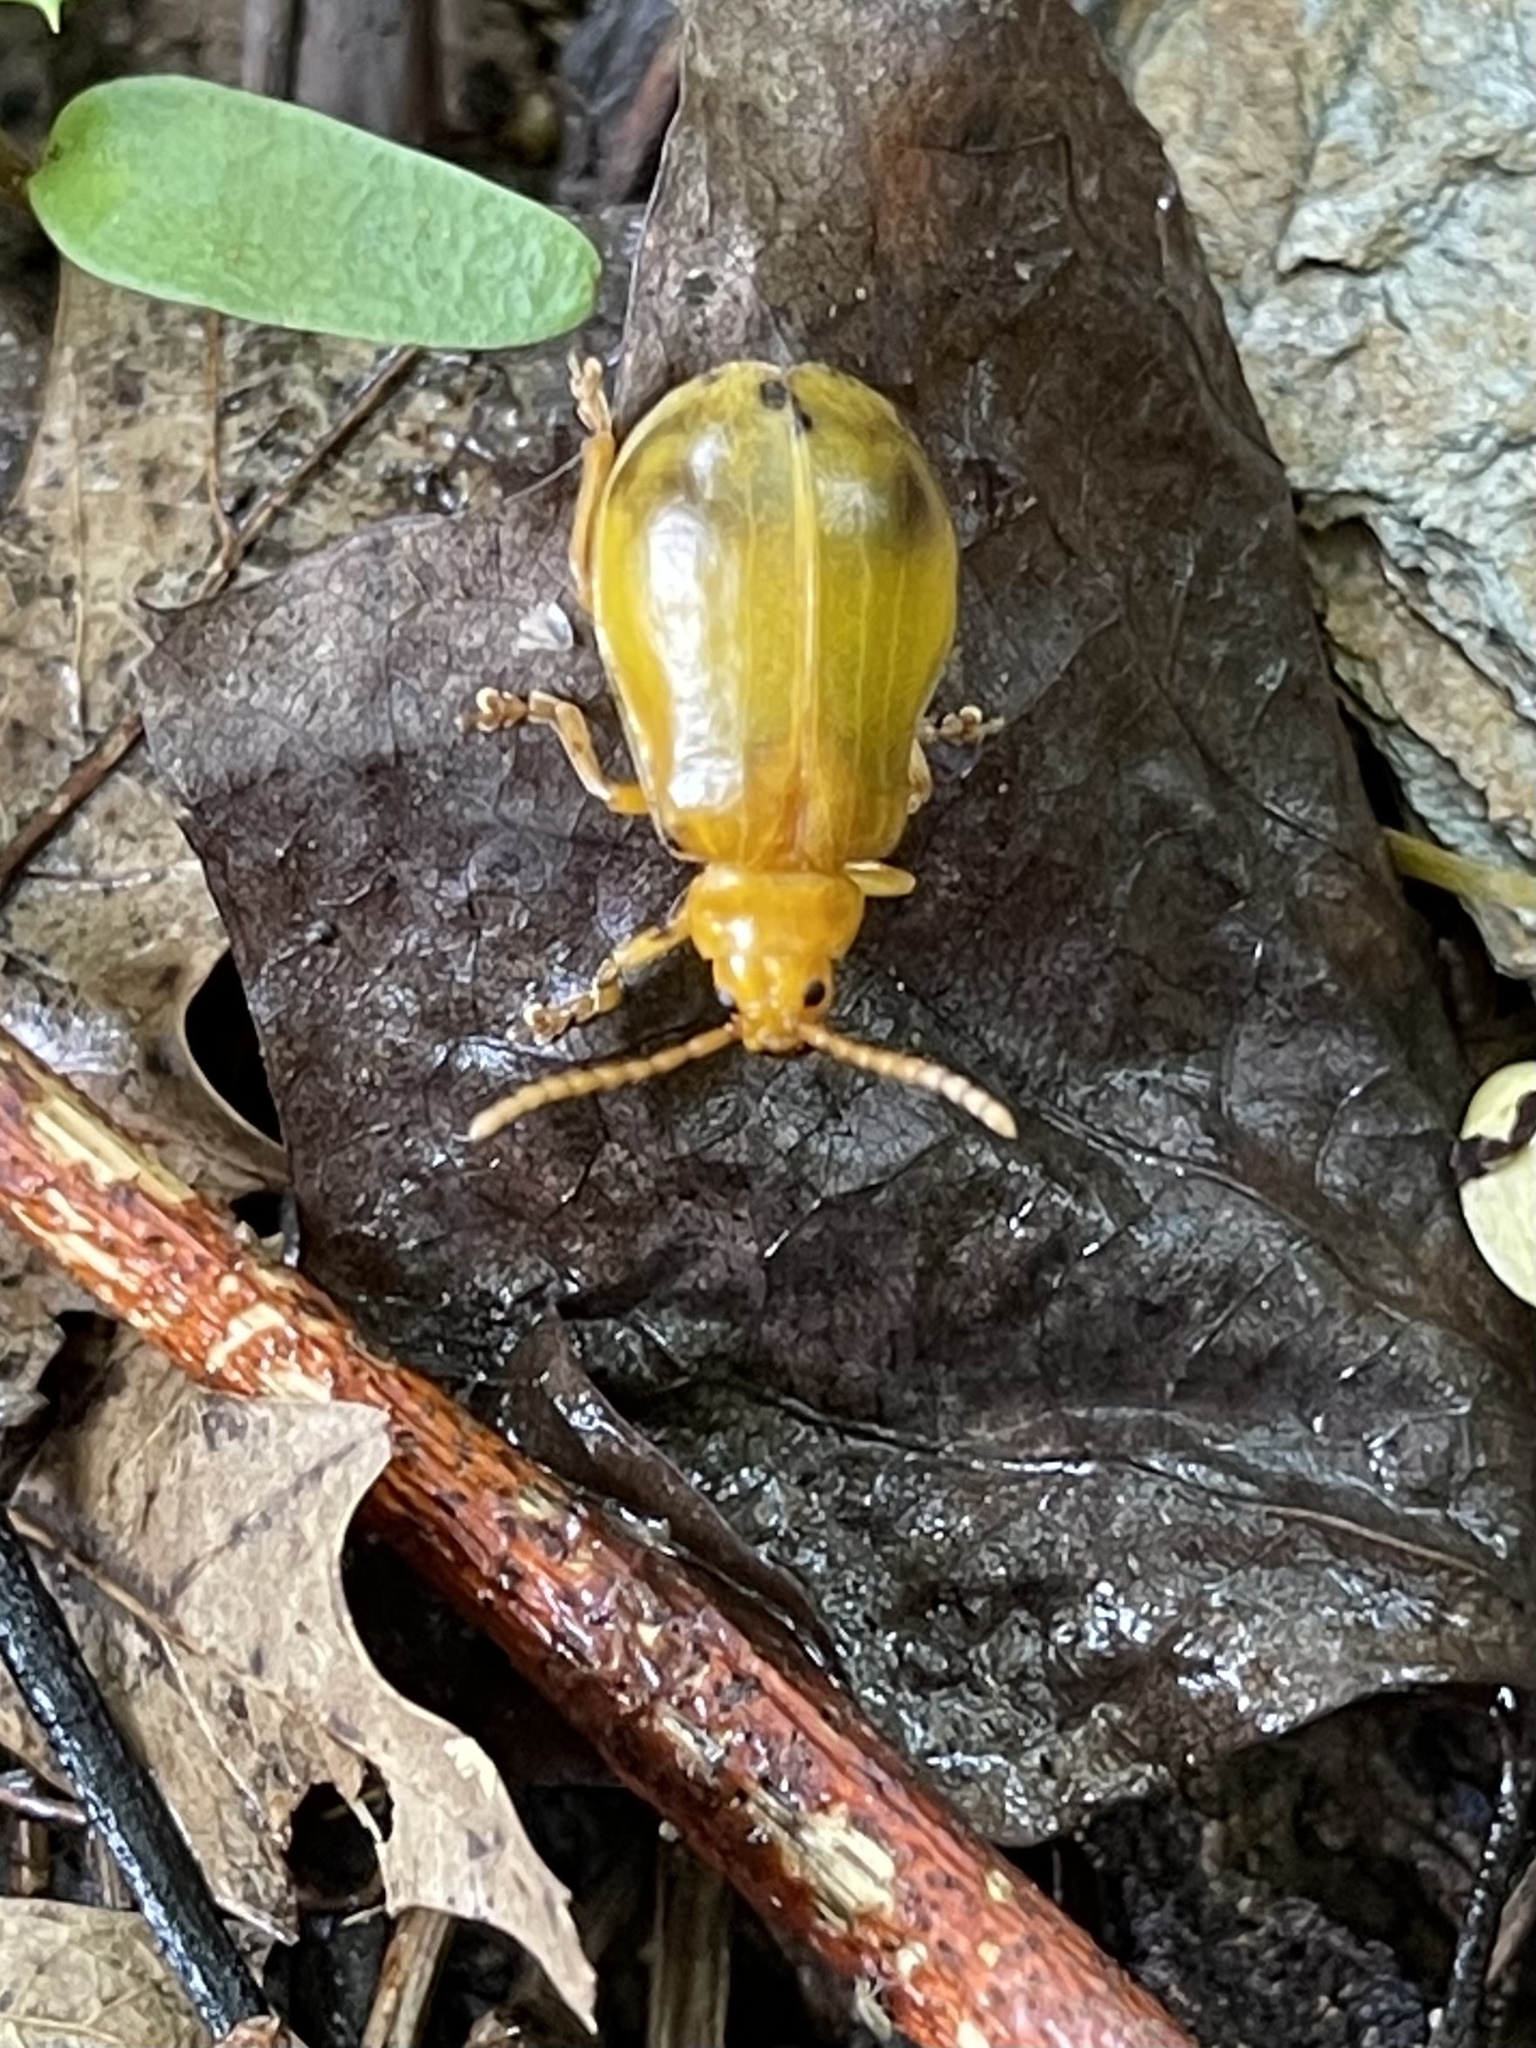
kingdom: Animalia
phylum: Arthropoda
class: Insecta
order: Coleoptera
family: Chrysomelidae
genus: Monocesta
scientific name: Monocesta coryli
